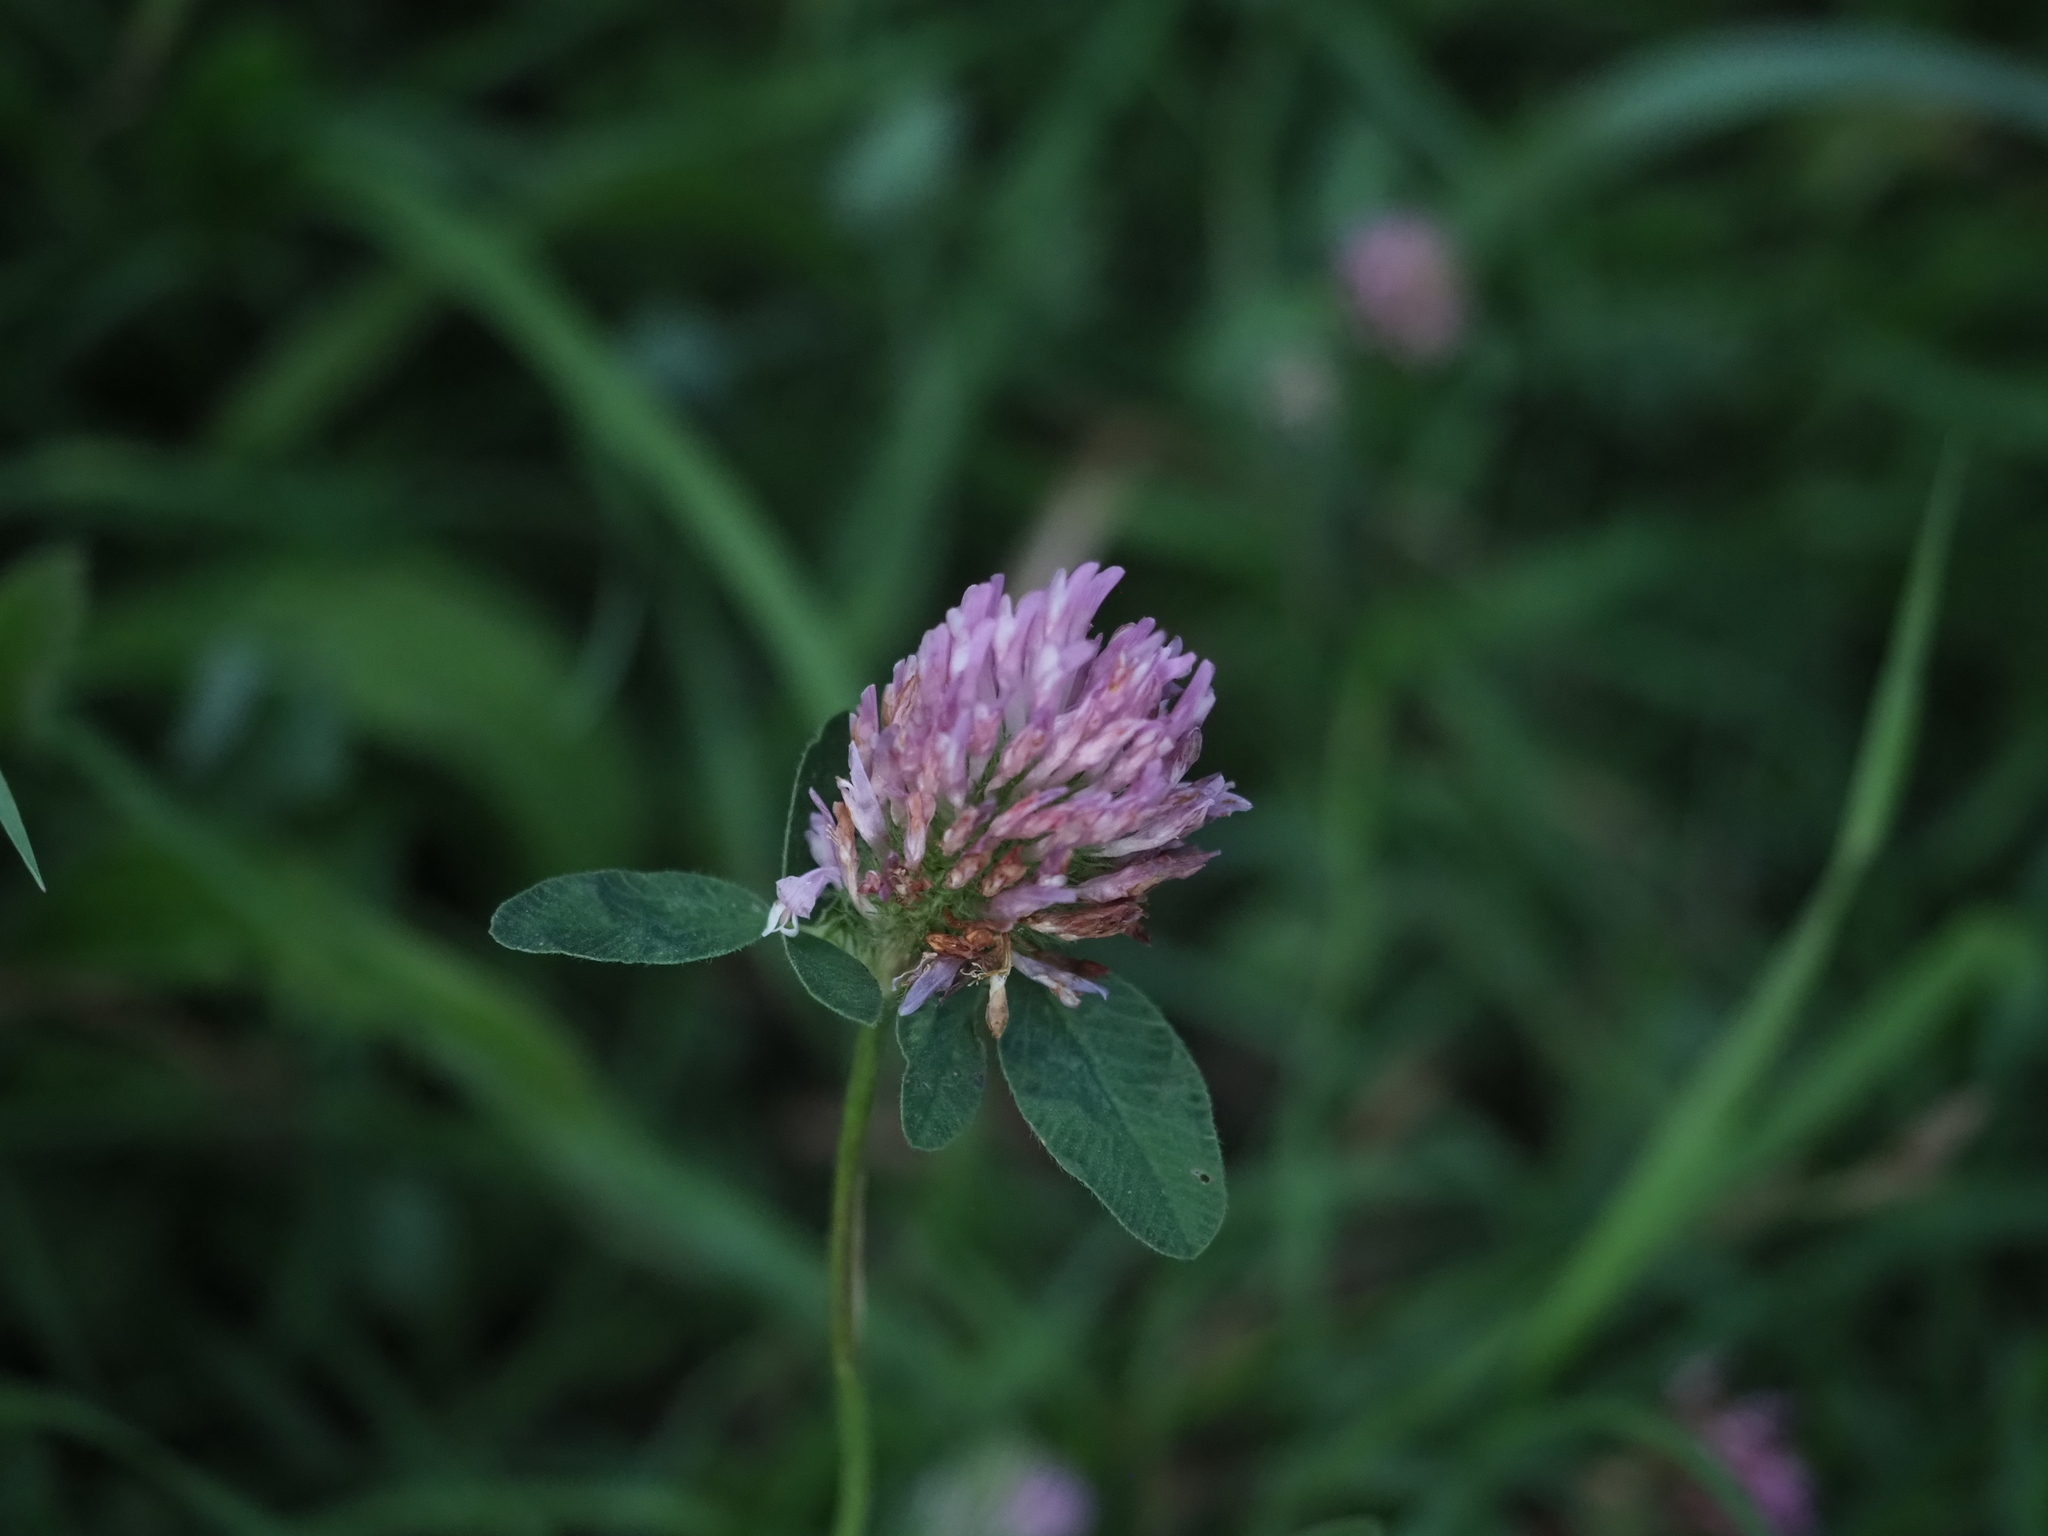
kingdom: Plantae
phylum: Tracheophyta
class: Magnoliopsida
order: Fabales
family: Fabaceae
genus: Trifolium
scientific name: Trifolium pratense
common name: Red clover
